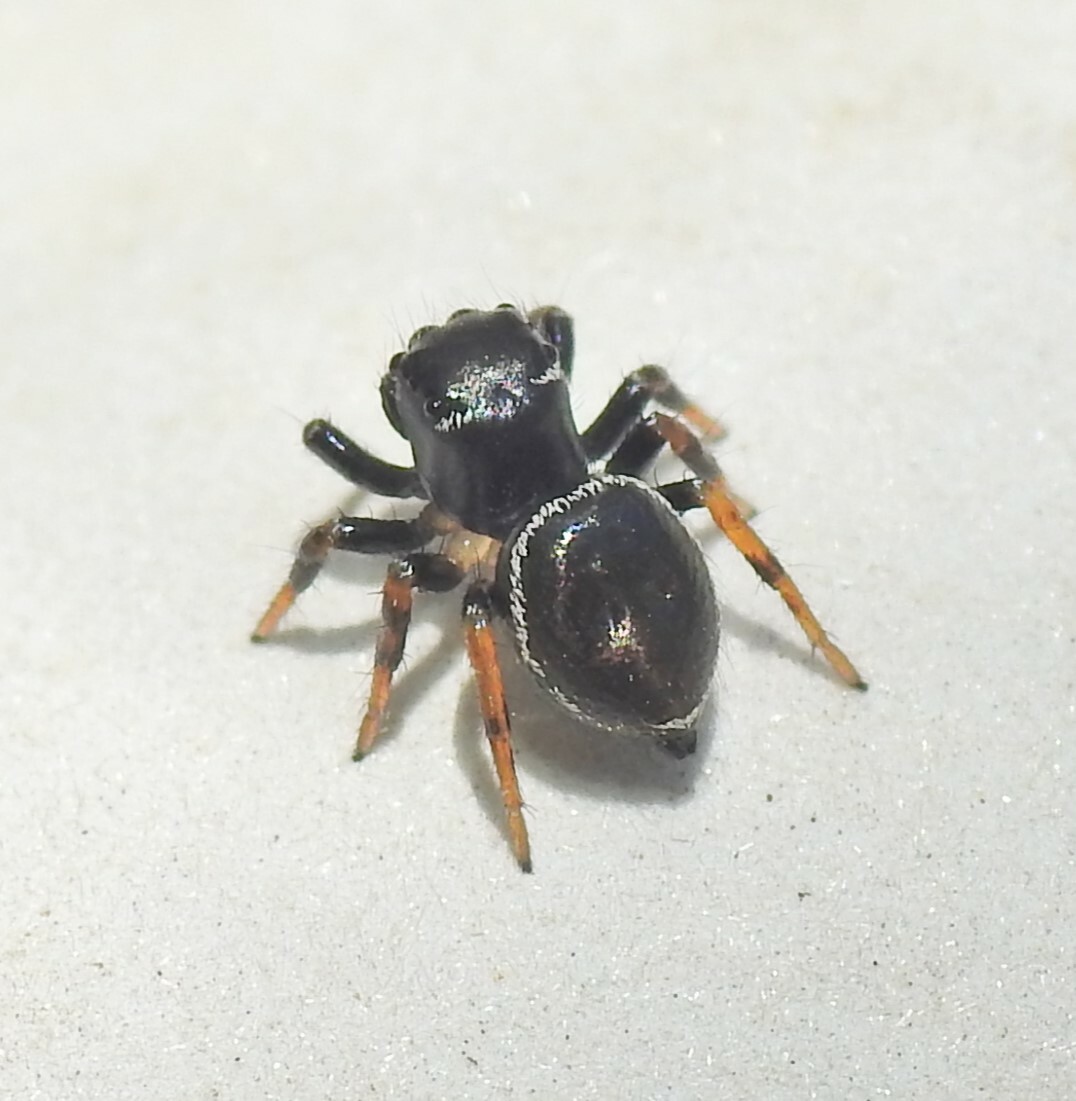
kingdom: Animalia
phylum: Arthropoda
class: Arachnida
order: Araneae
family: Salticidae
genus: Zenodorus
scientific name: Zenodorus orbiculatus
